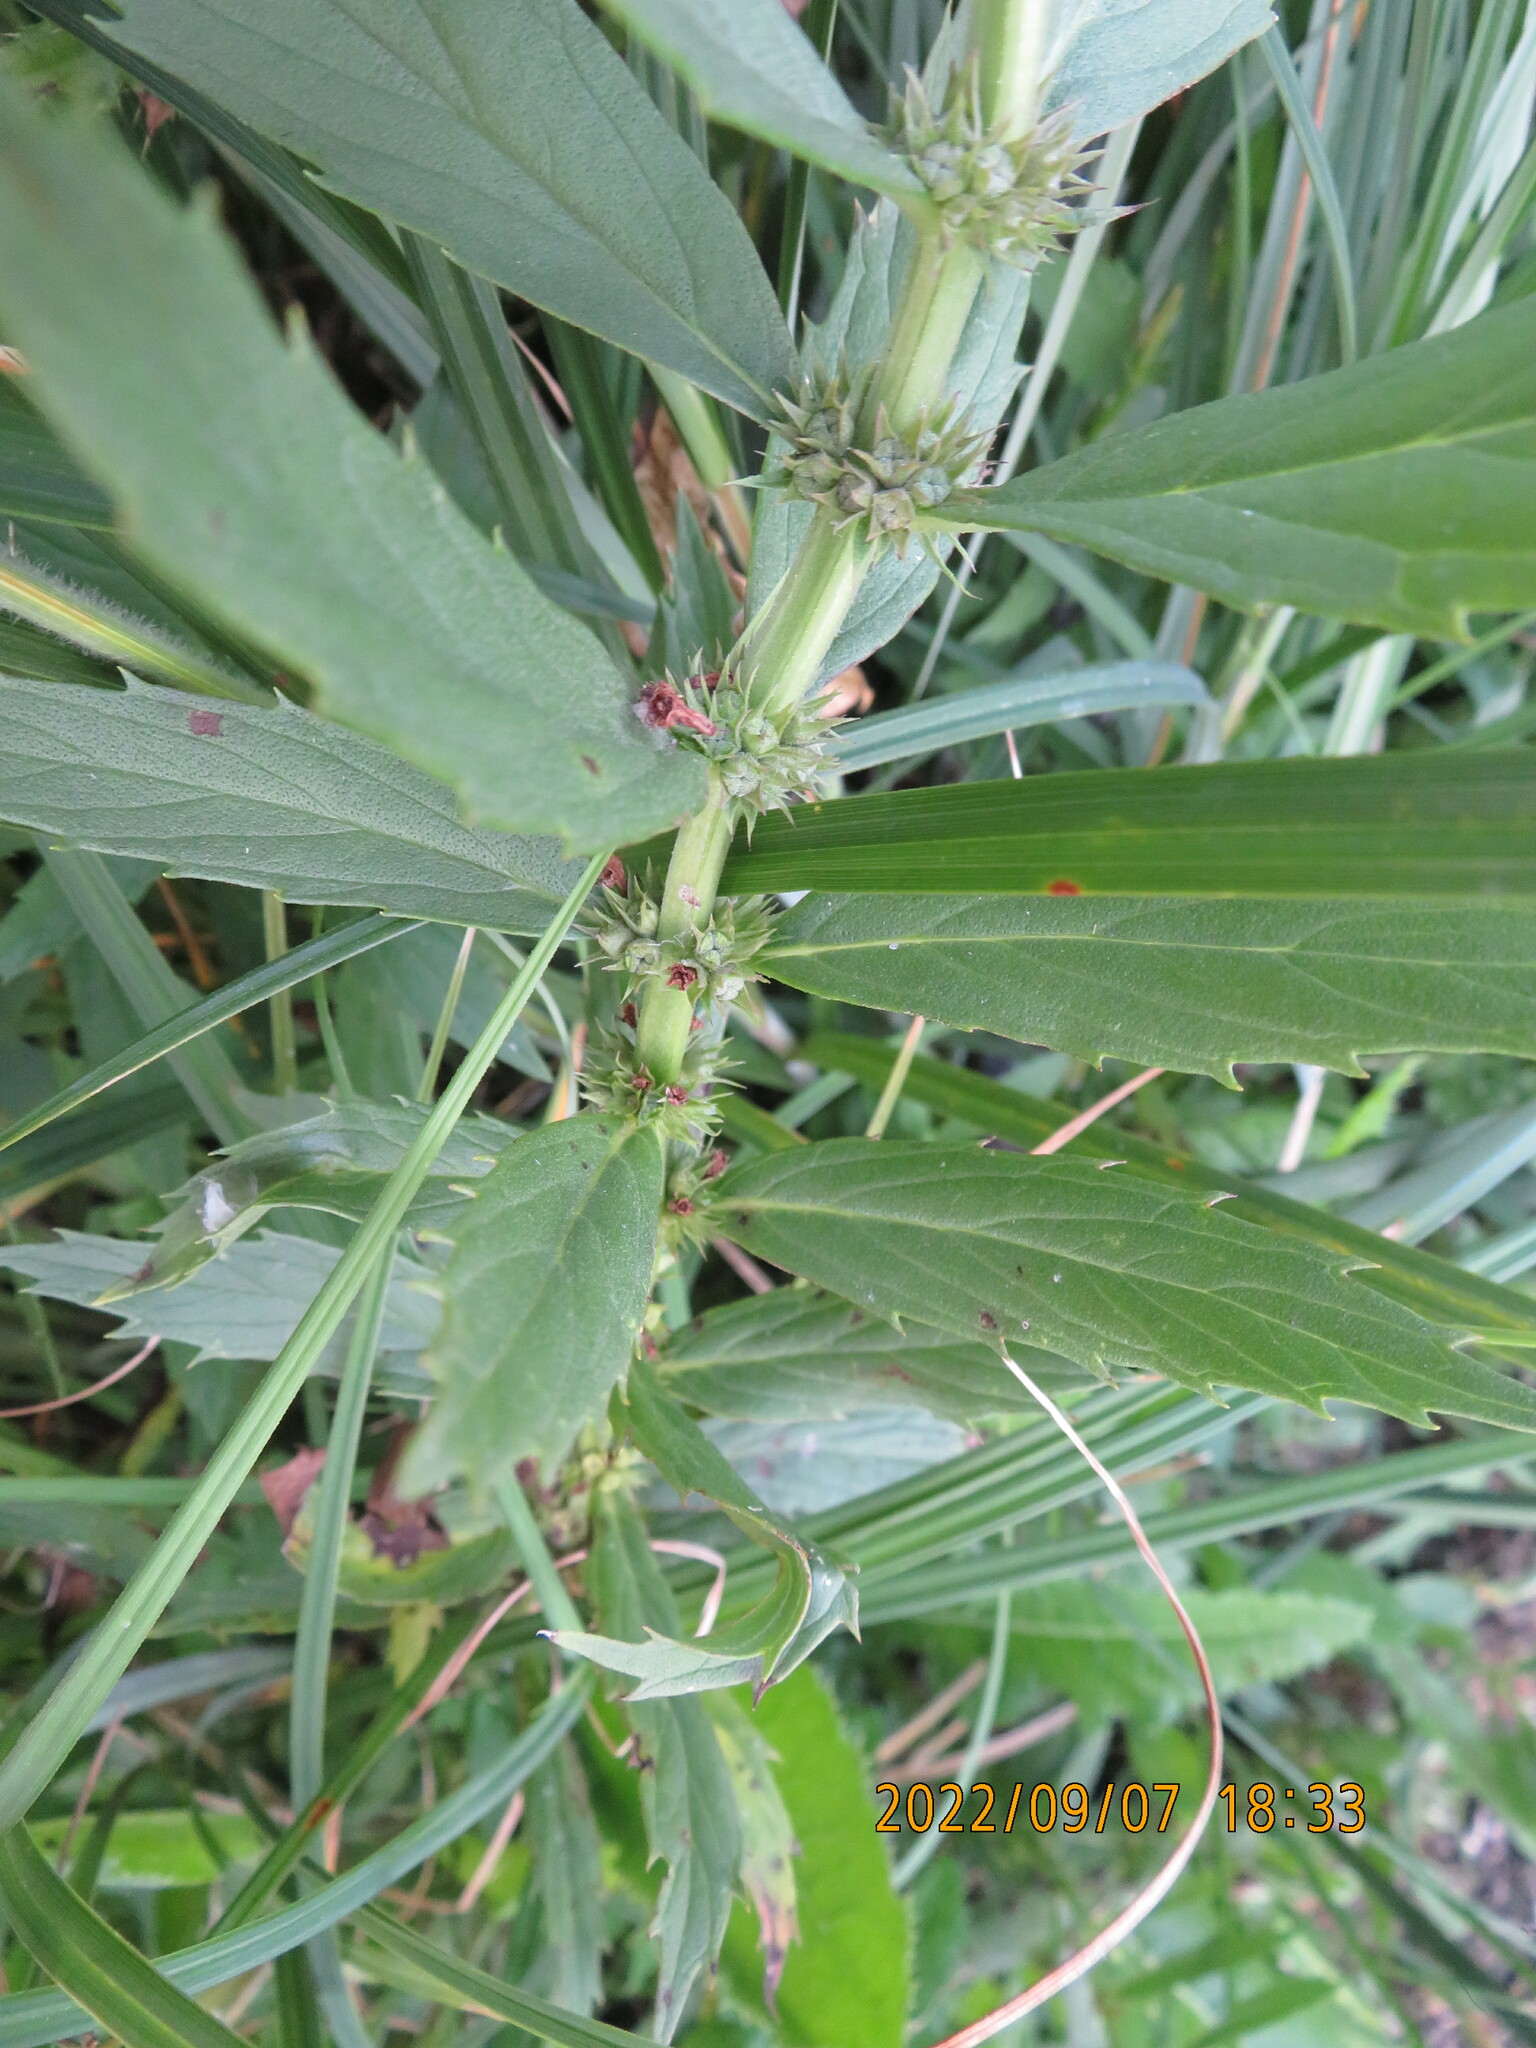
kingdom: Plantae
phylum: Tracheophyta
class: Magnoliopsida
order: Lamiales
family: Lamiaceae
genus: Lycopus
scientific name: Lycopus asper
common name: Rough water-horehound
